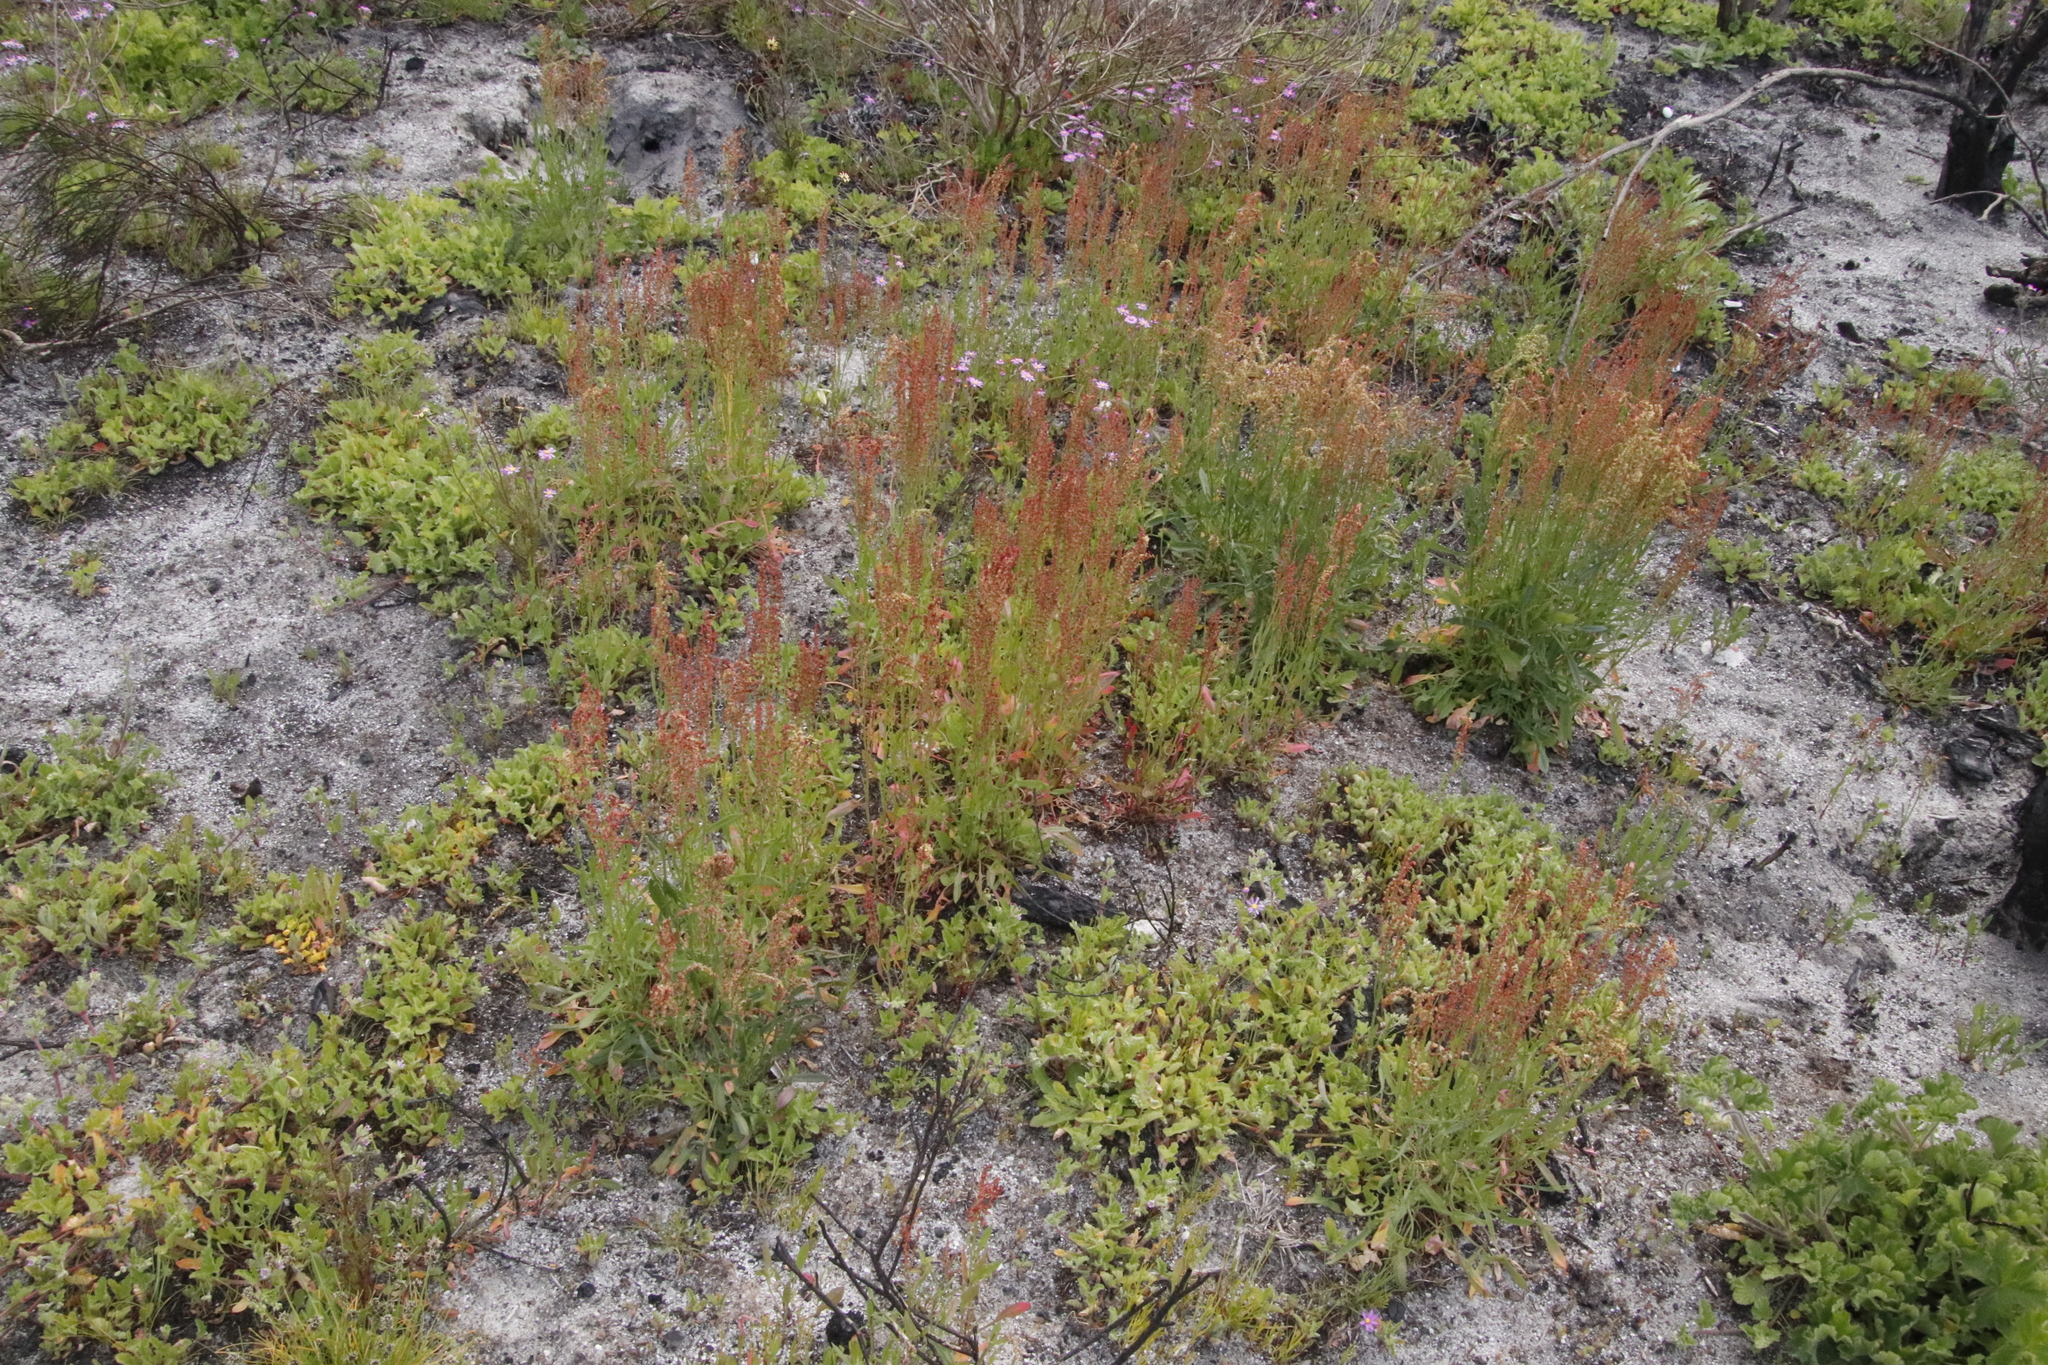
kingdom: Plantae
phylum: Tracheophyta
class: Magnoliopsida
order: Caryophyllales
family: Polygonaceae
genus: Rumex
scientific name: Rumex acetosella
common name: Common sheep sorrel
